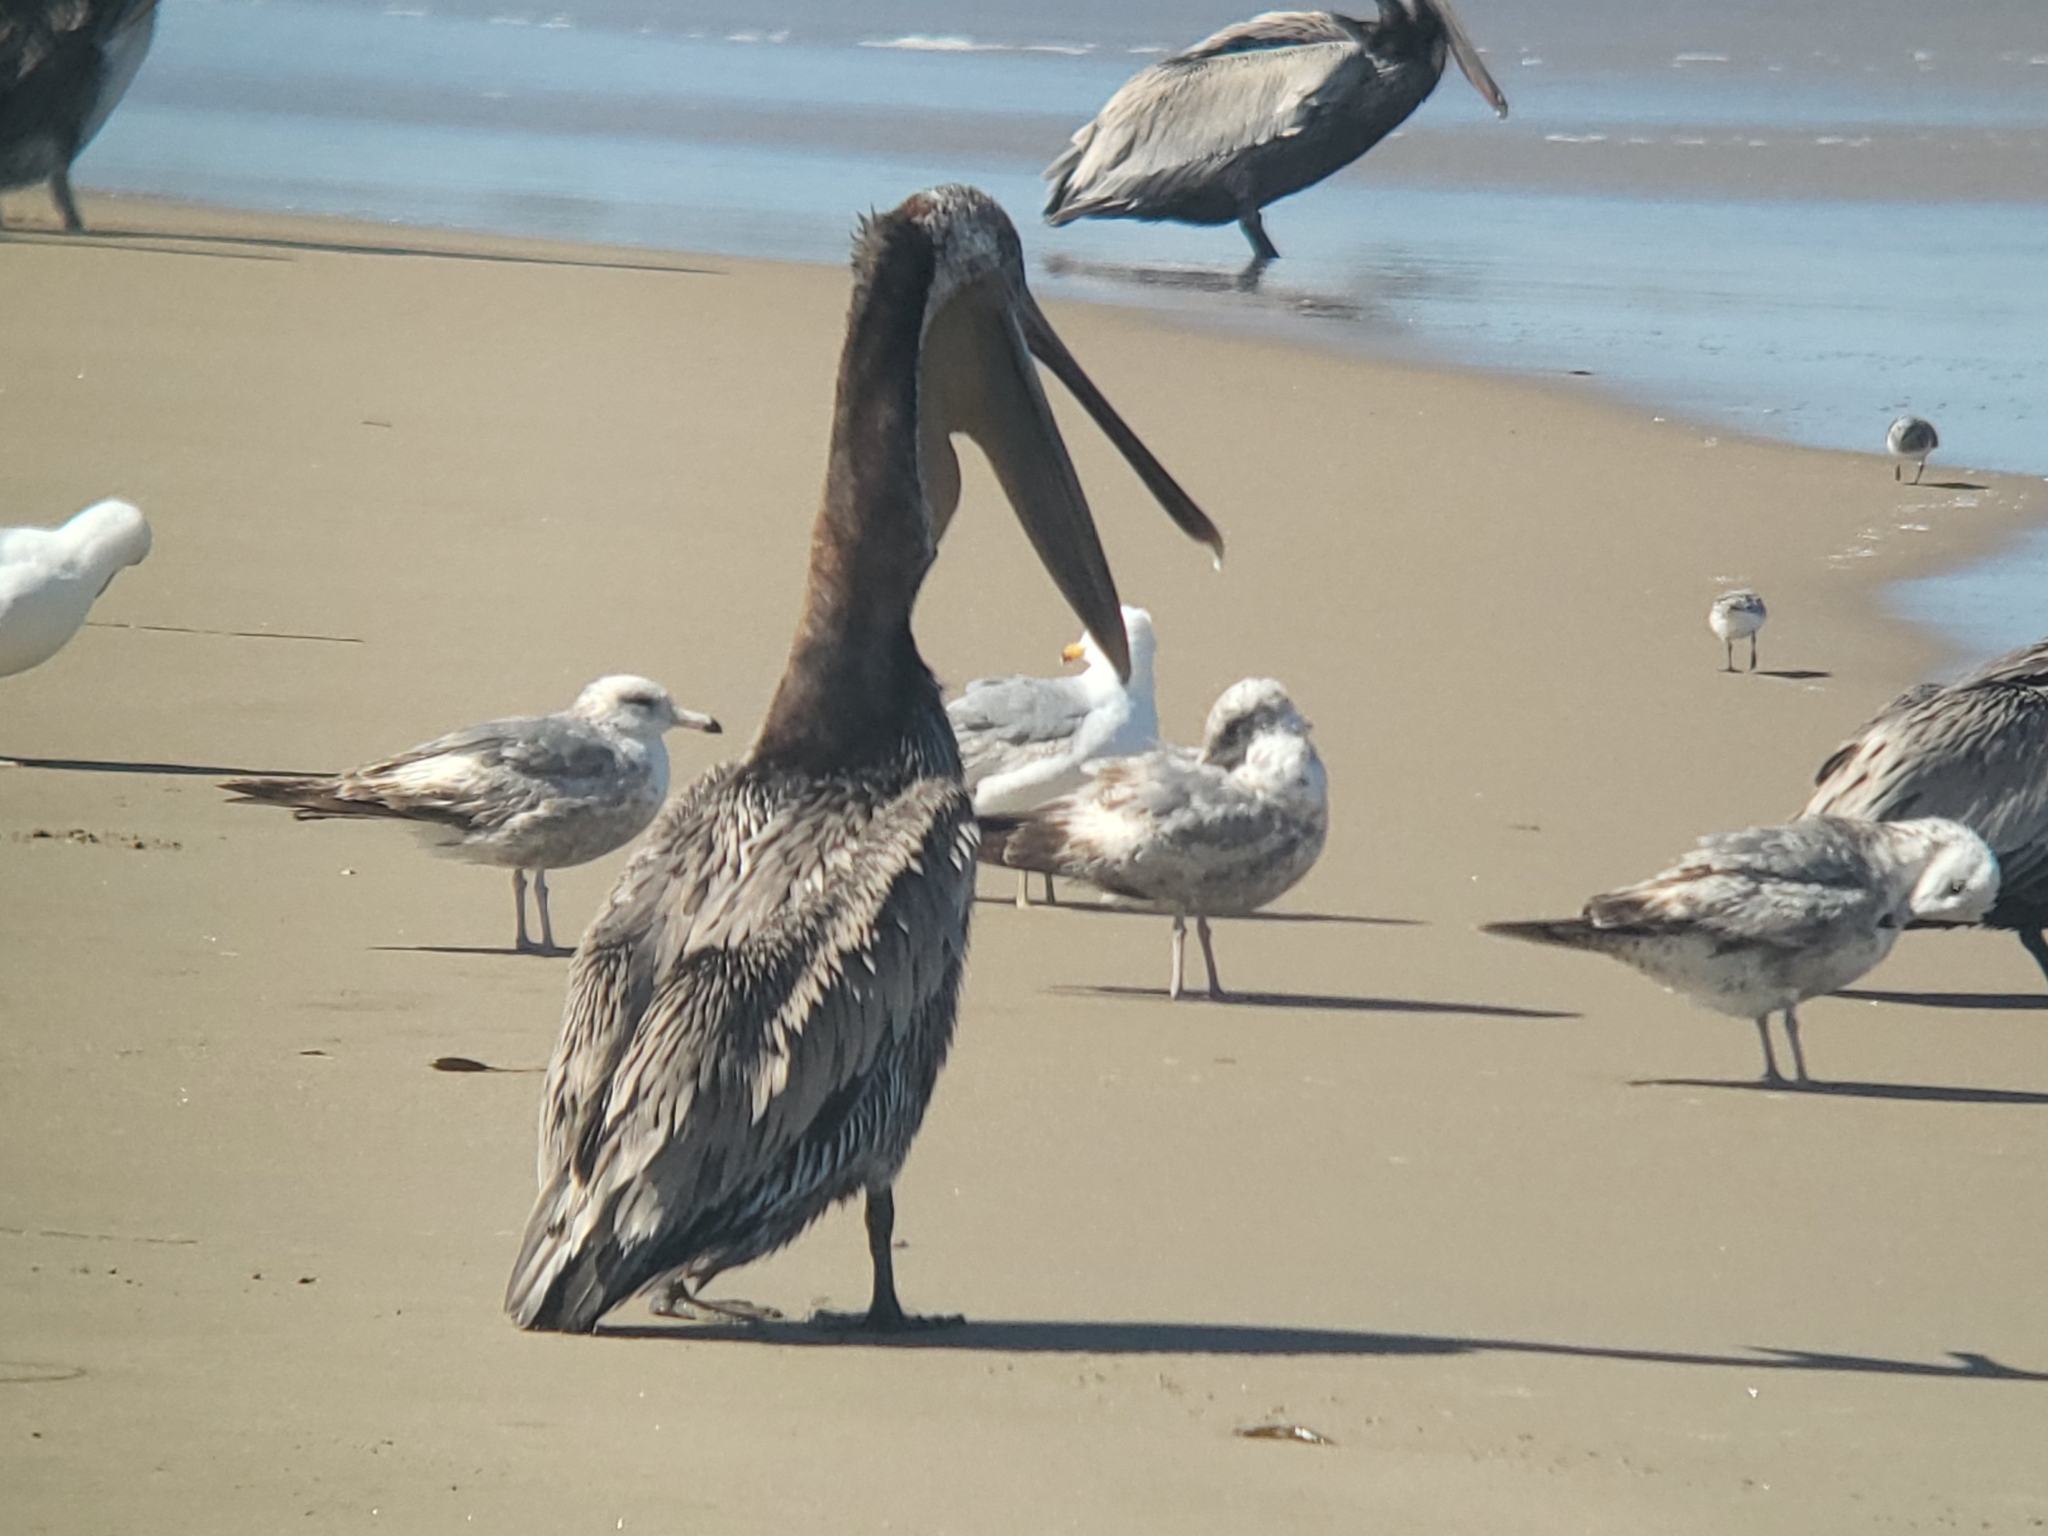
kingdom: Animalia
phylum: Chordata
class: Aves
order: Pelecaniformes
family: Pelecanidae
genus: Pelecanus
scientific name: Pelecanus occidentalis
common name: Brown pelican
